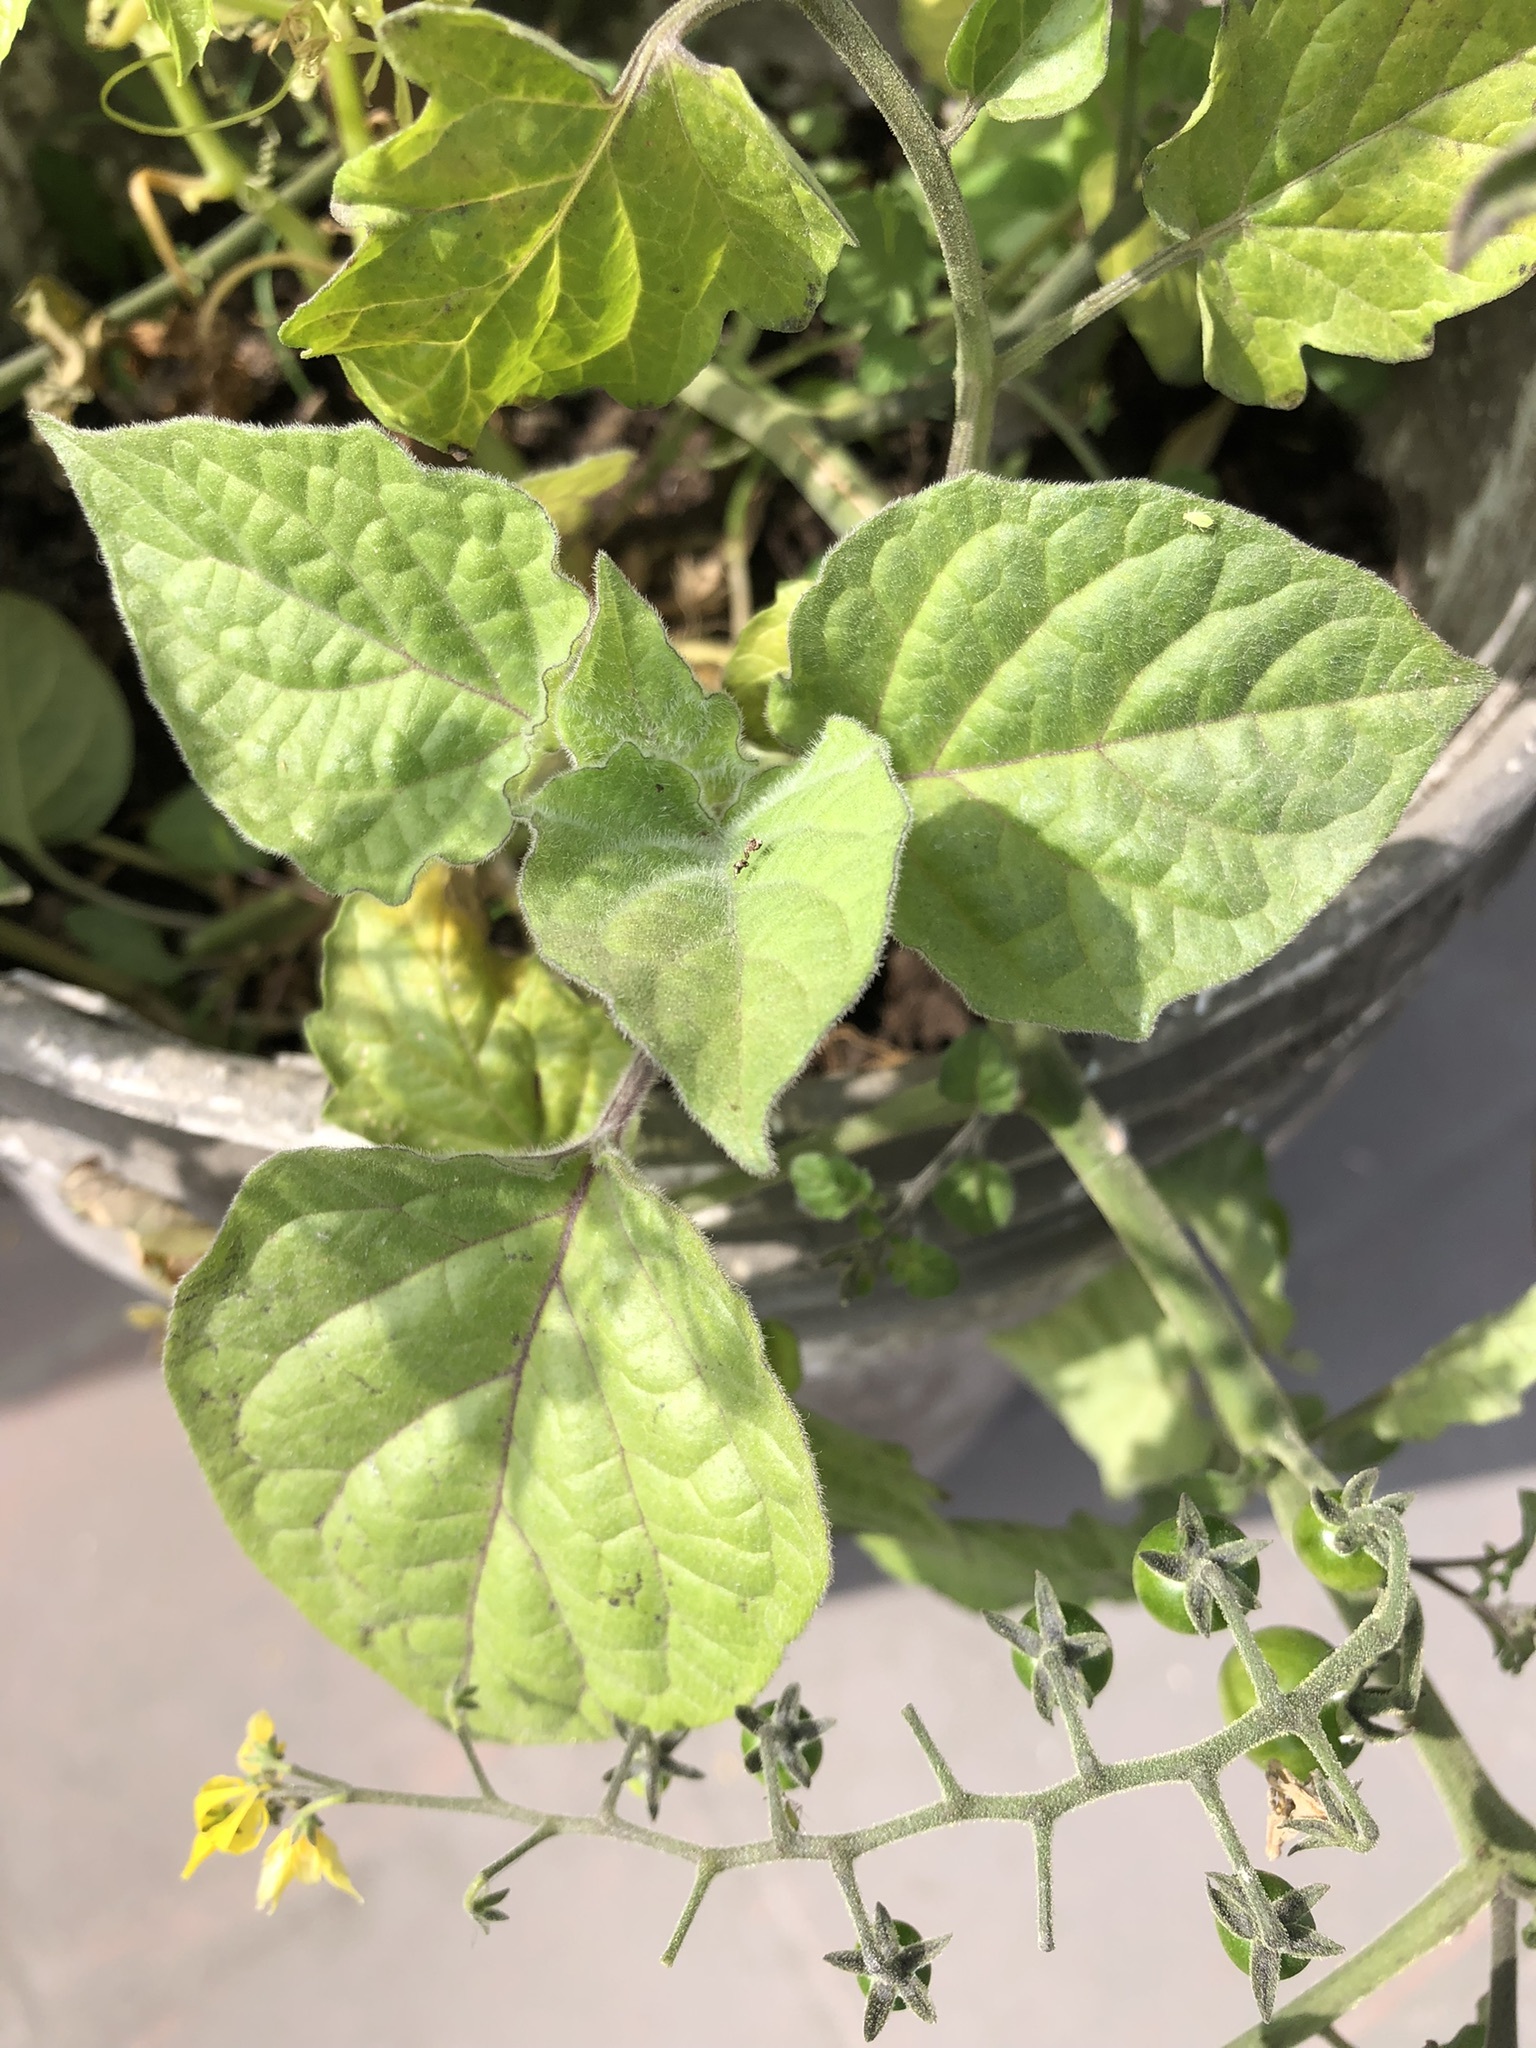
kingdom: Plantae
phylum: Tracheophyta
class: Magnoliopsida
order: Solanales
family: Solanaceae
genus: Physalis
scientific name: Physalis peruviana
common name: Cape-gooseberry
